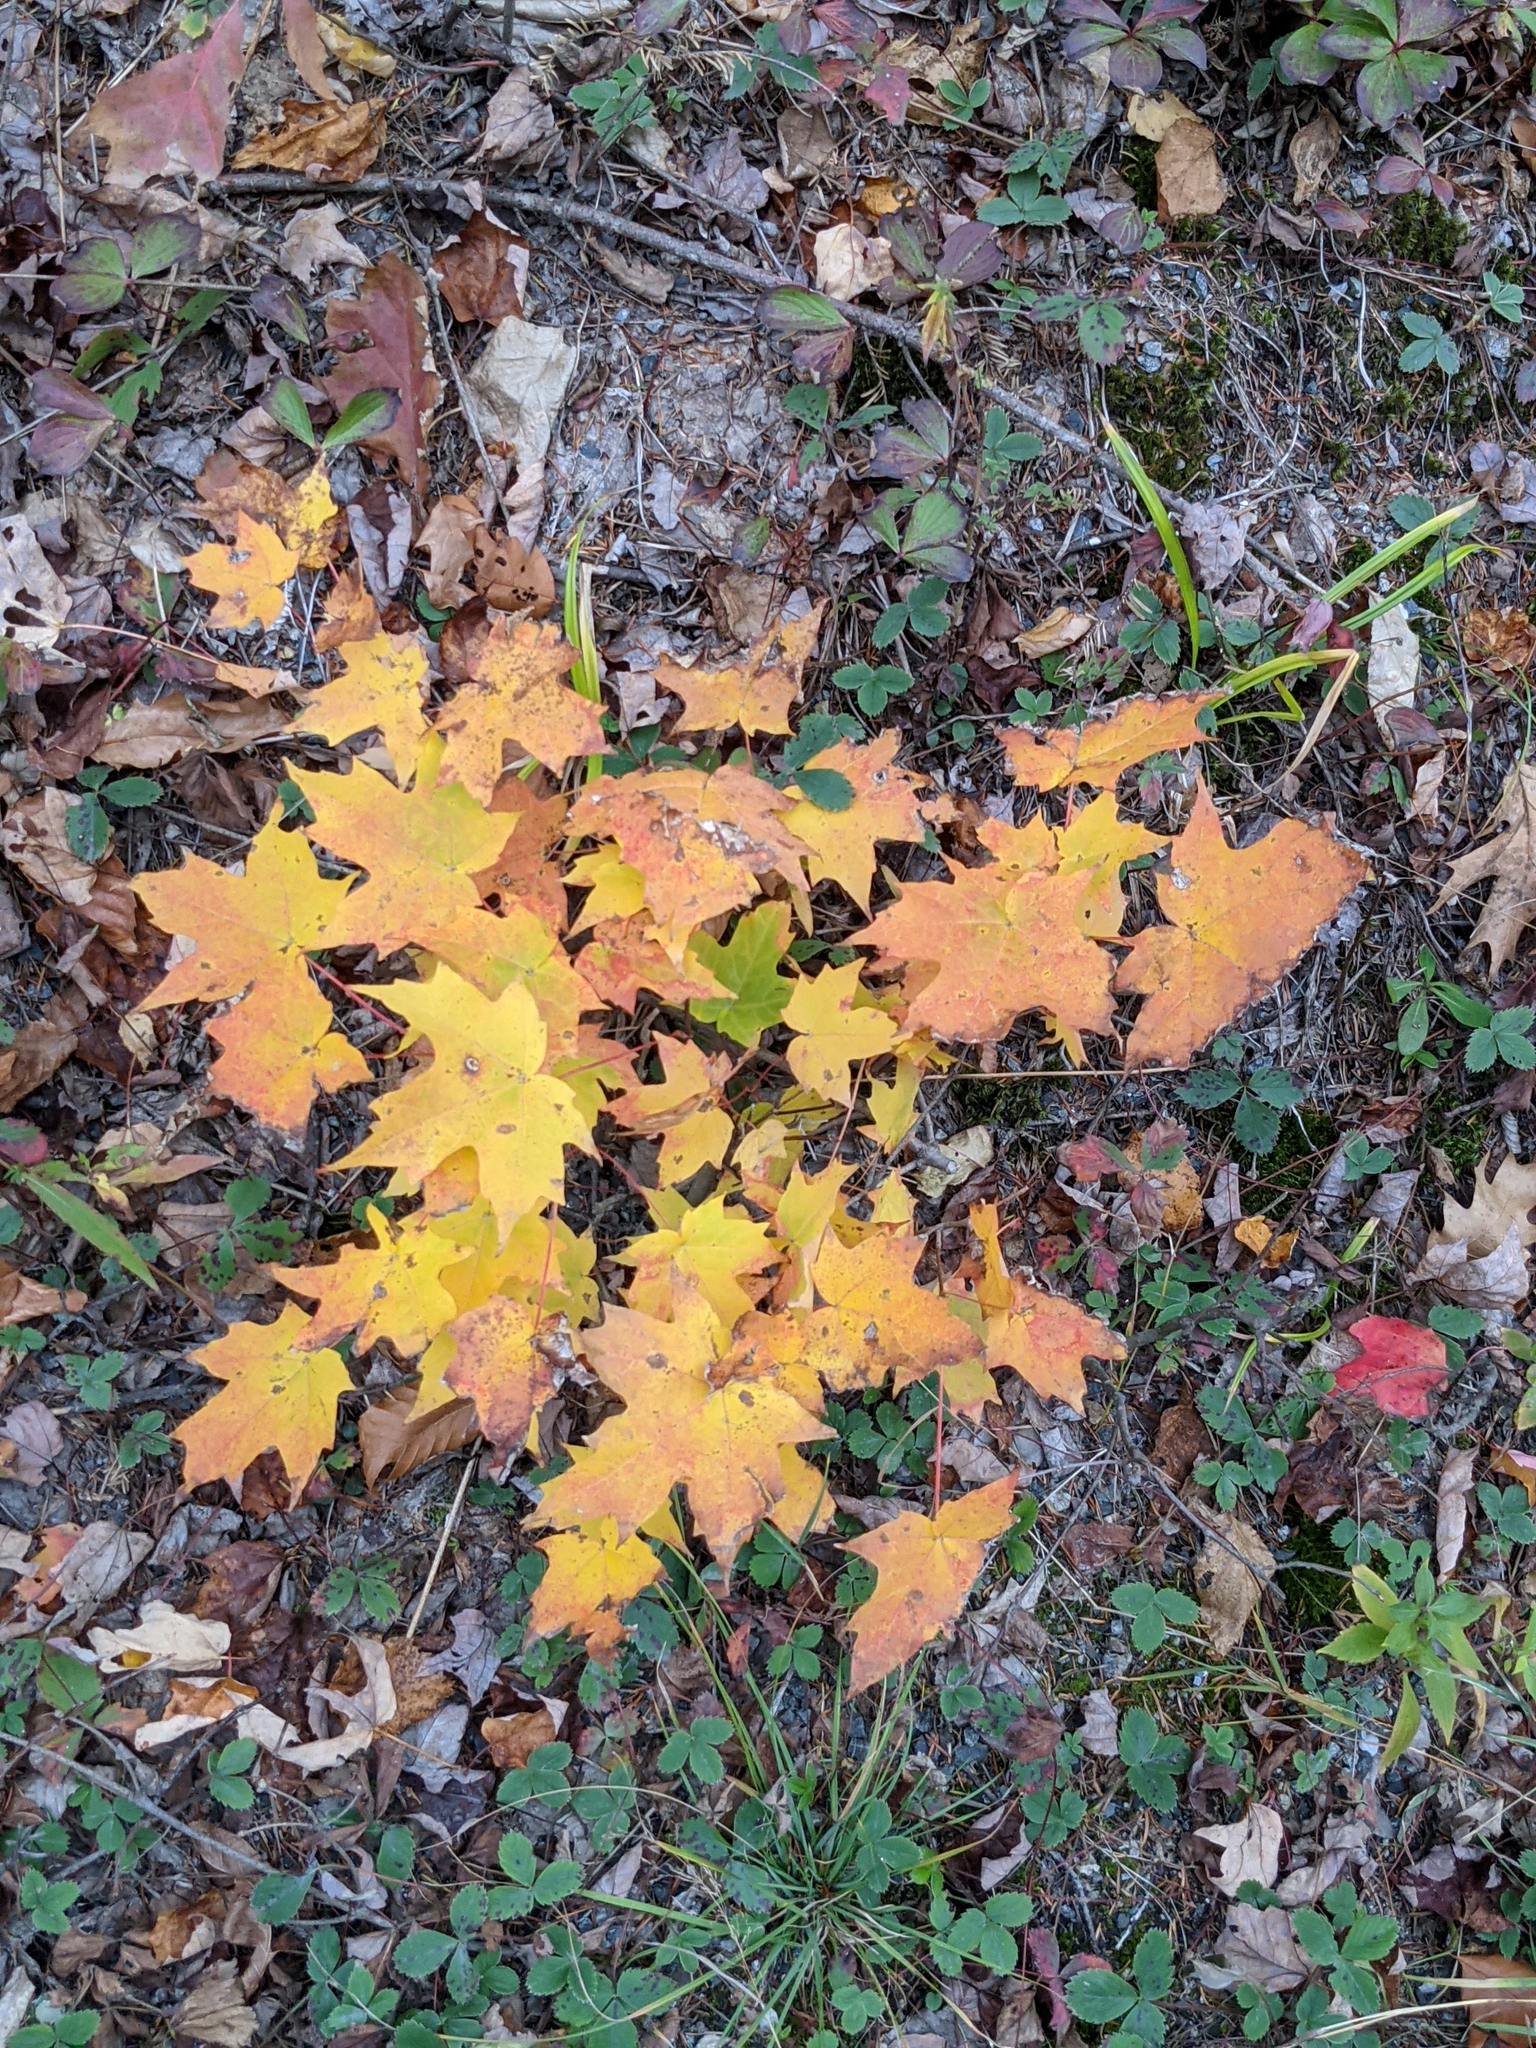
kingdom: Plantae
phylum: Tracheophyta
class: Magnoliopsida
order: Sapindales
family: Sapindaceae
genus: Acer
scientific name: Acer saccharum
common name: Sugar maple
